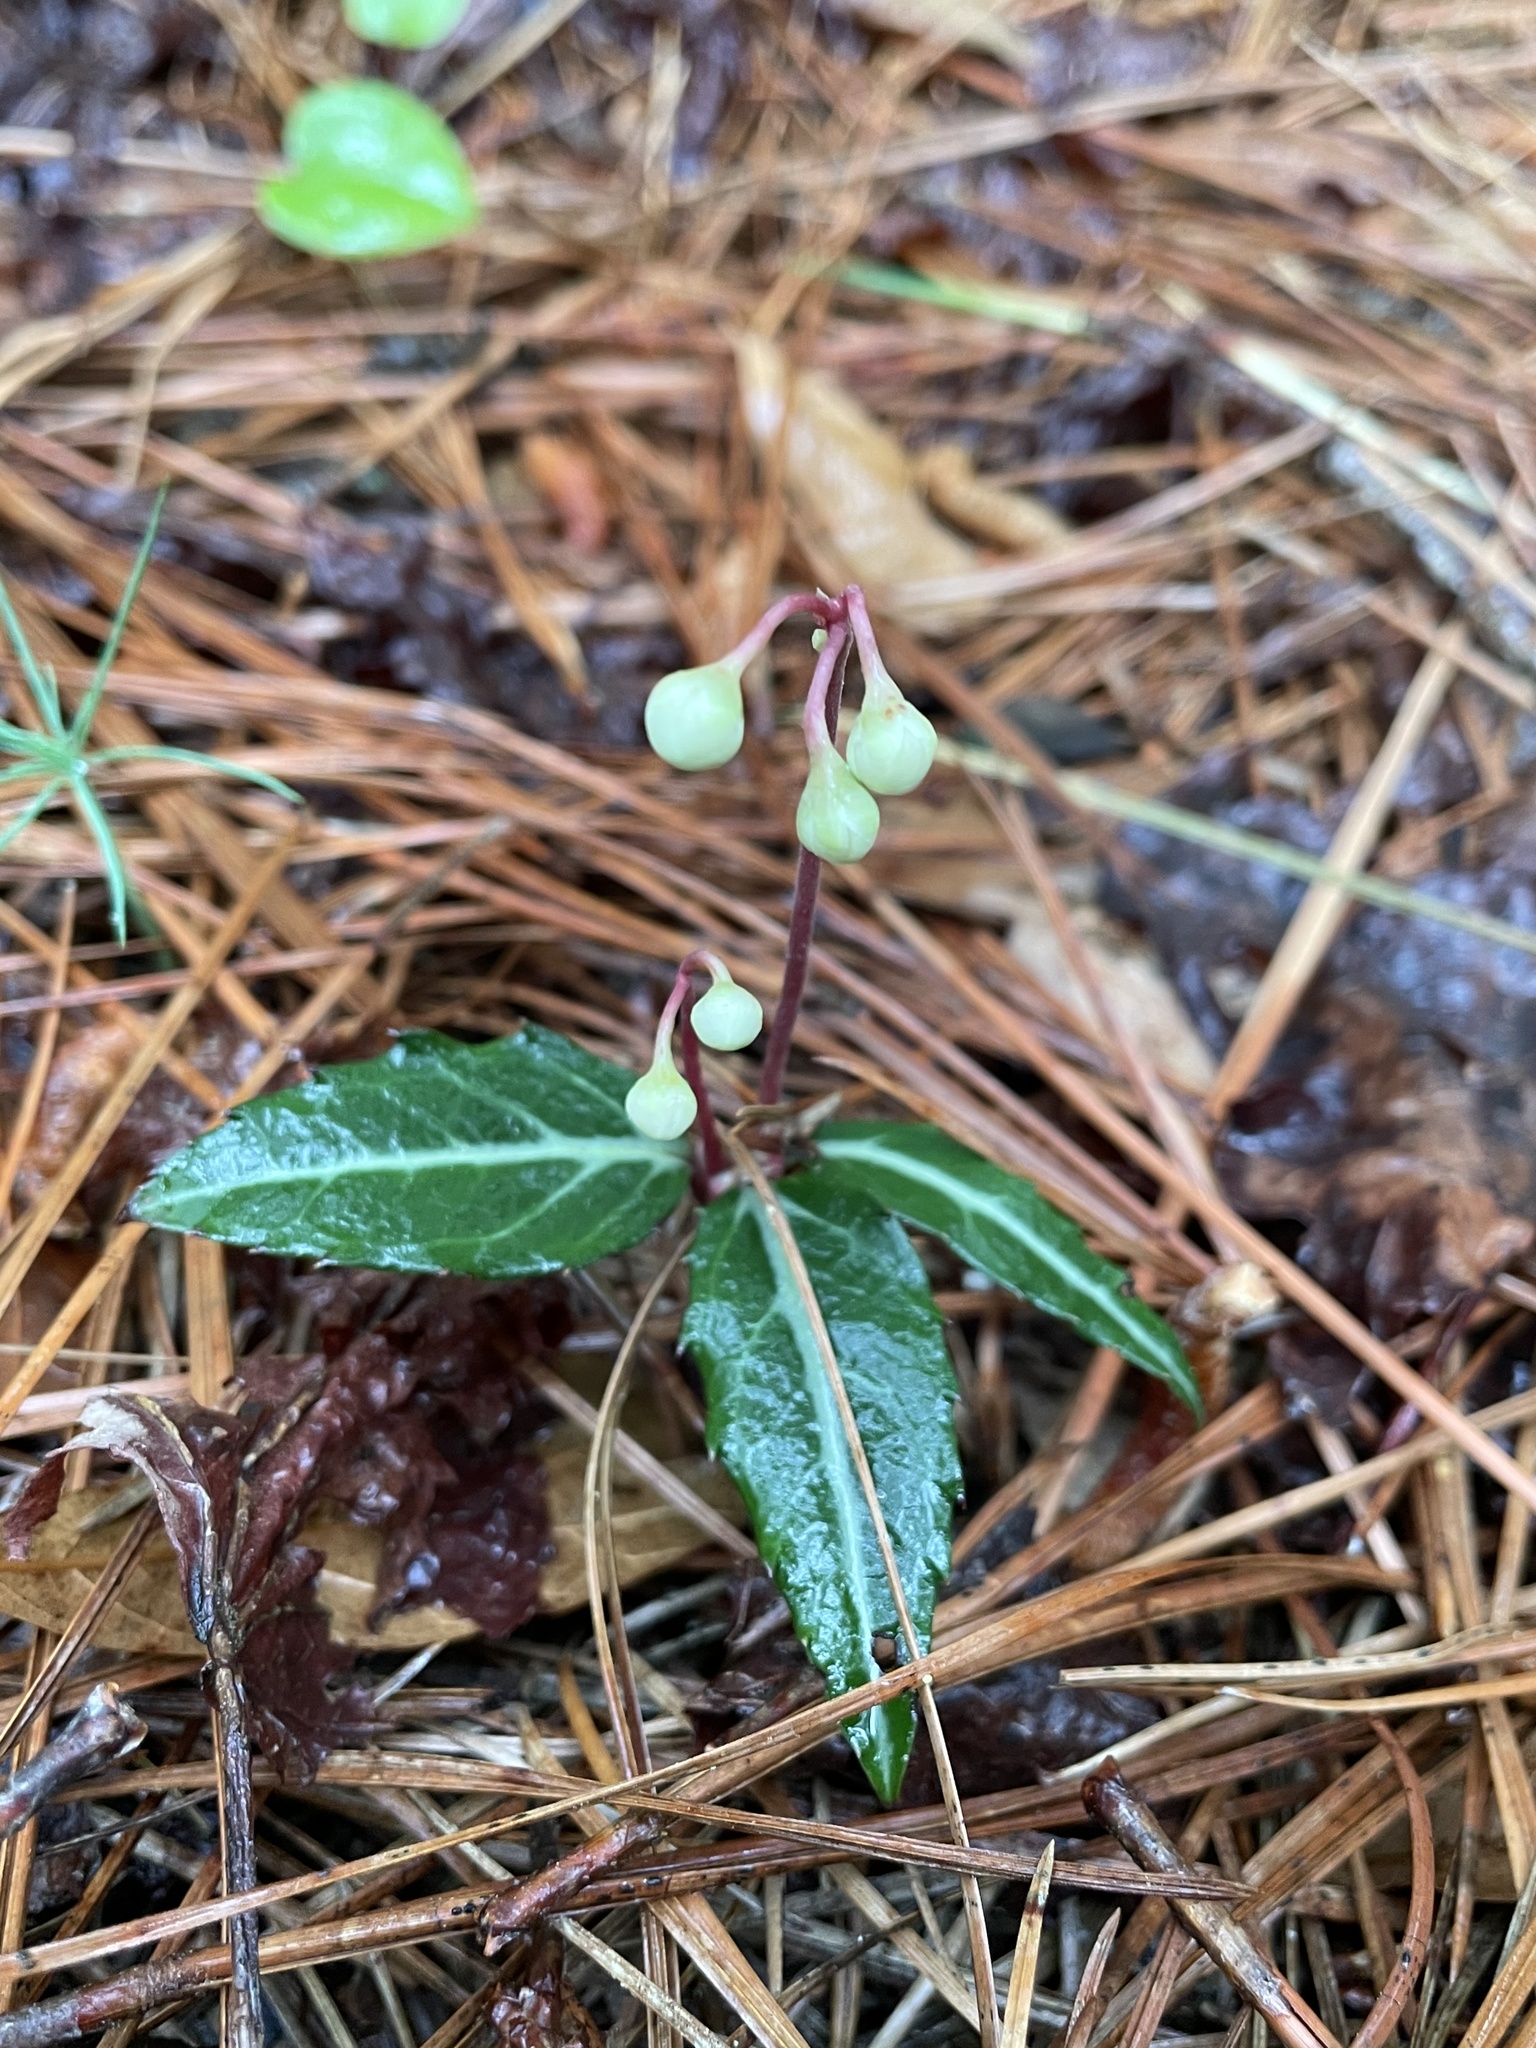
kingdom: Plantae
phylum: Tracheophyta
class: Magnoliopsida
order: Ericales
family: Ericaceae
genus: Chimaphila
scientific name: Chimaphila maculata
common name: Spotted pipsissewa
